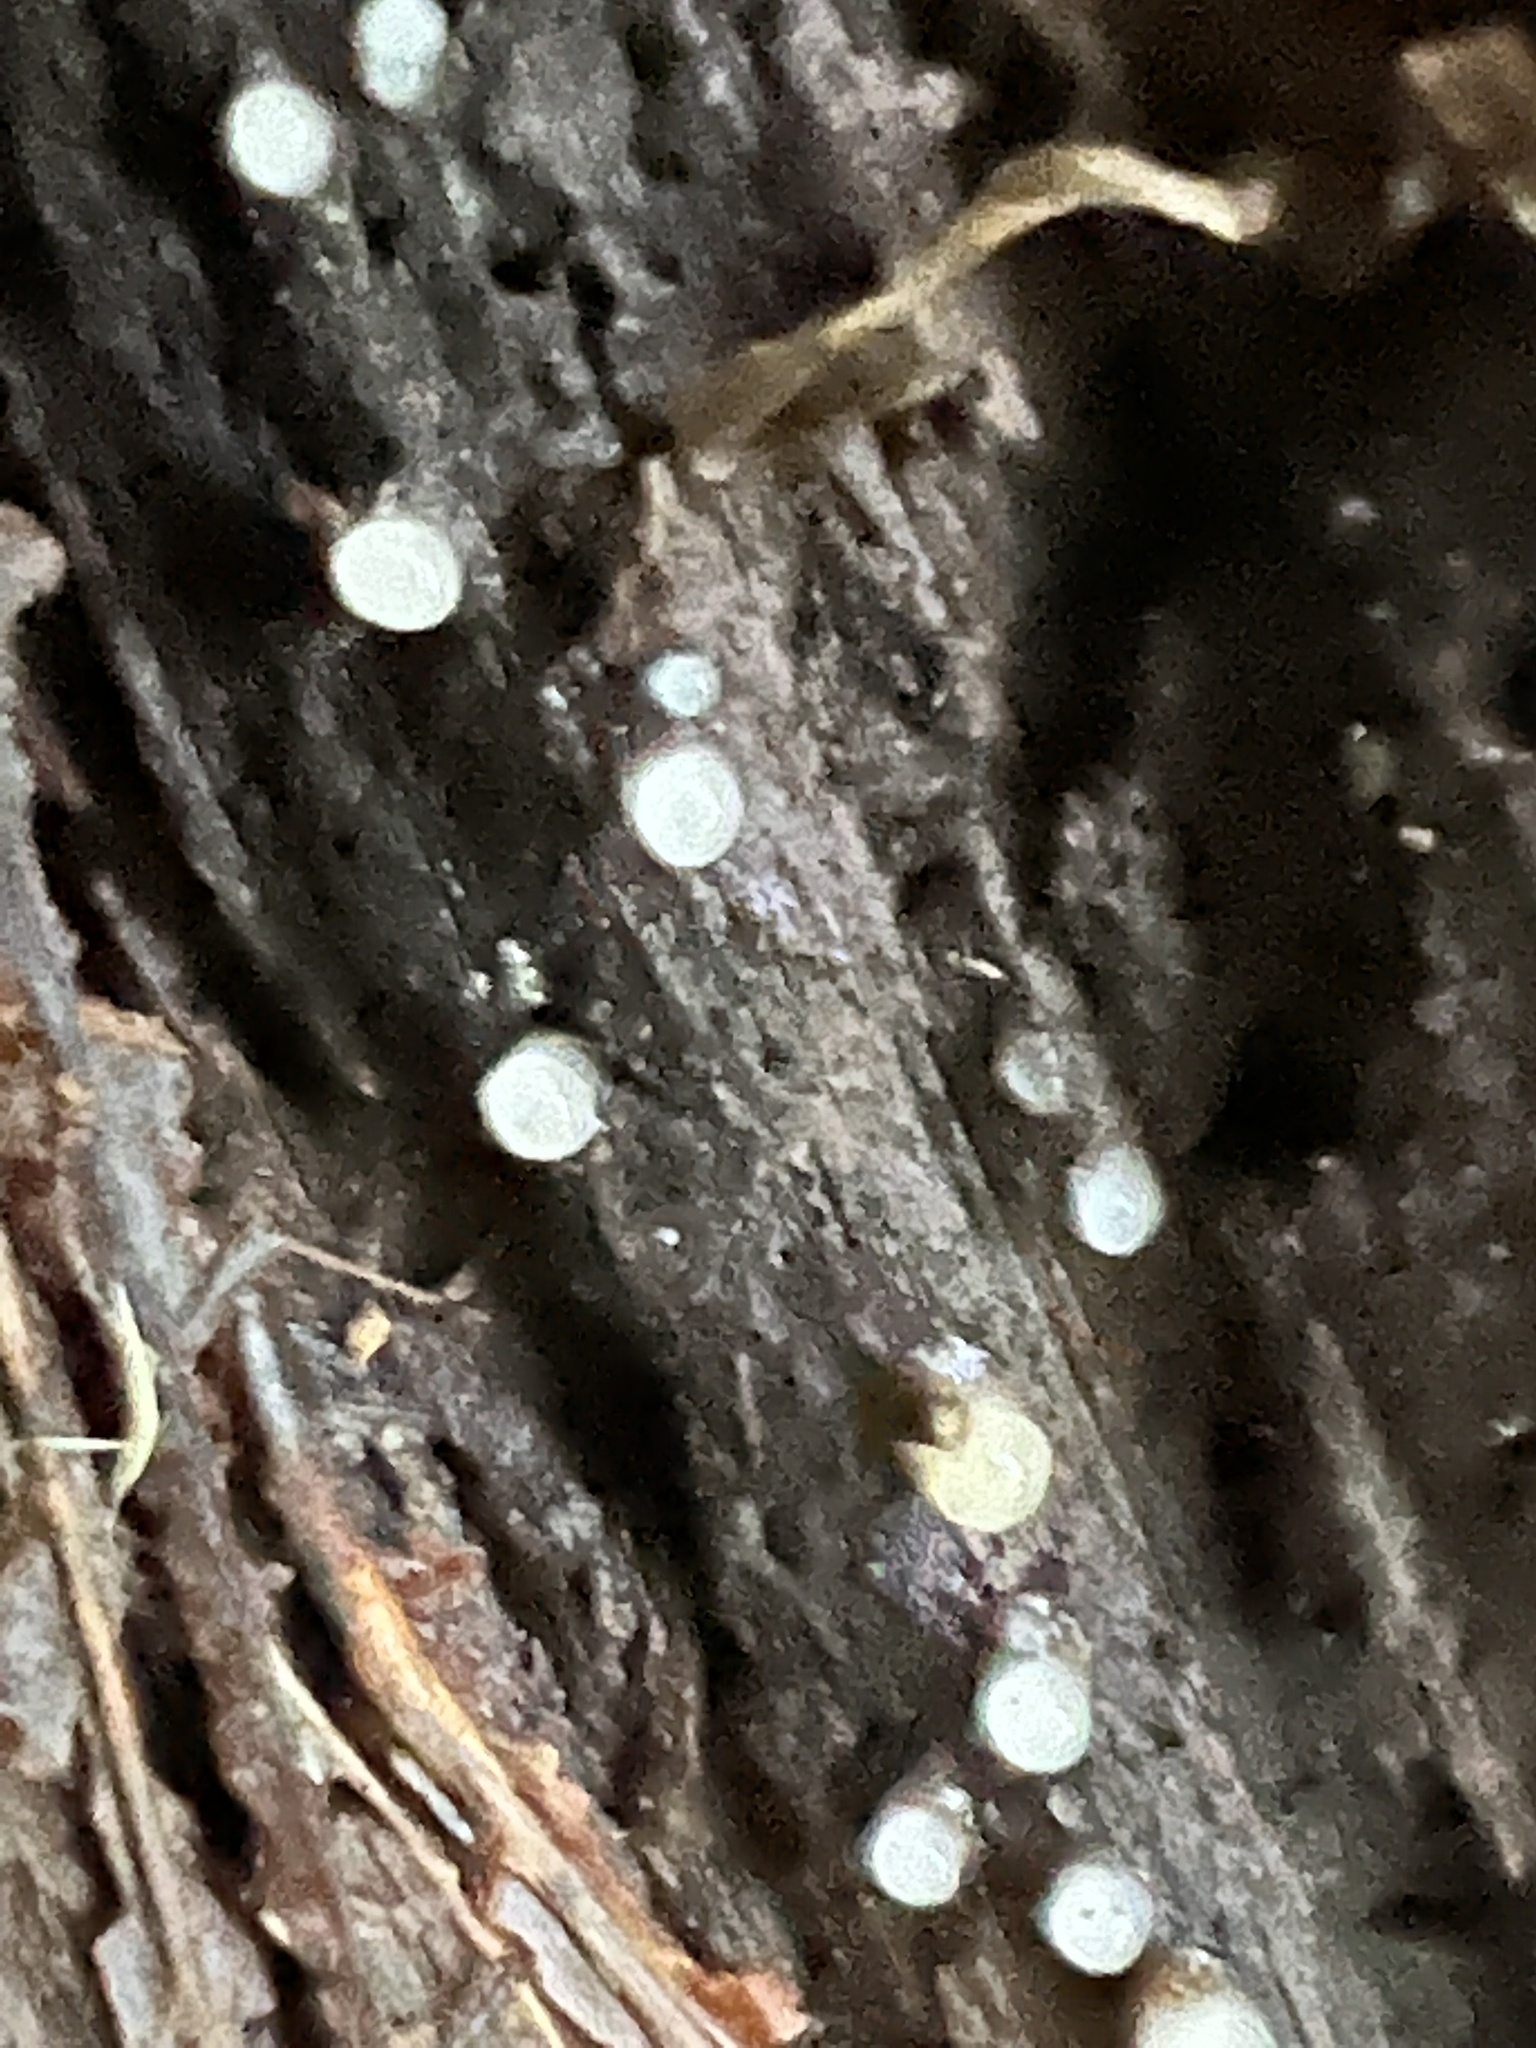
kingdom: Fungi
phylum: Basidiomycota
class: Atractiellomycetes
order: Atractiellales
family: Phleogenaceae
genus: Helicogloea
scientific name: Helicogloea compressa
